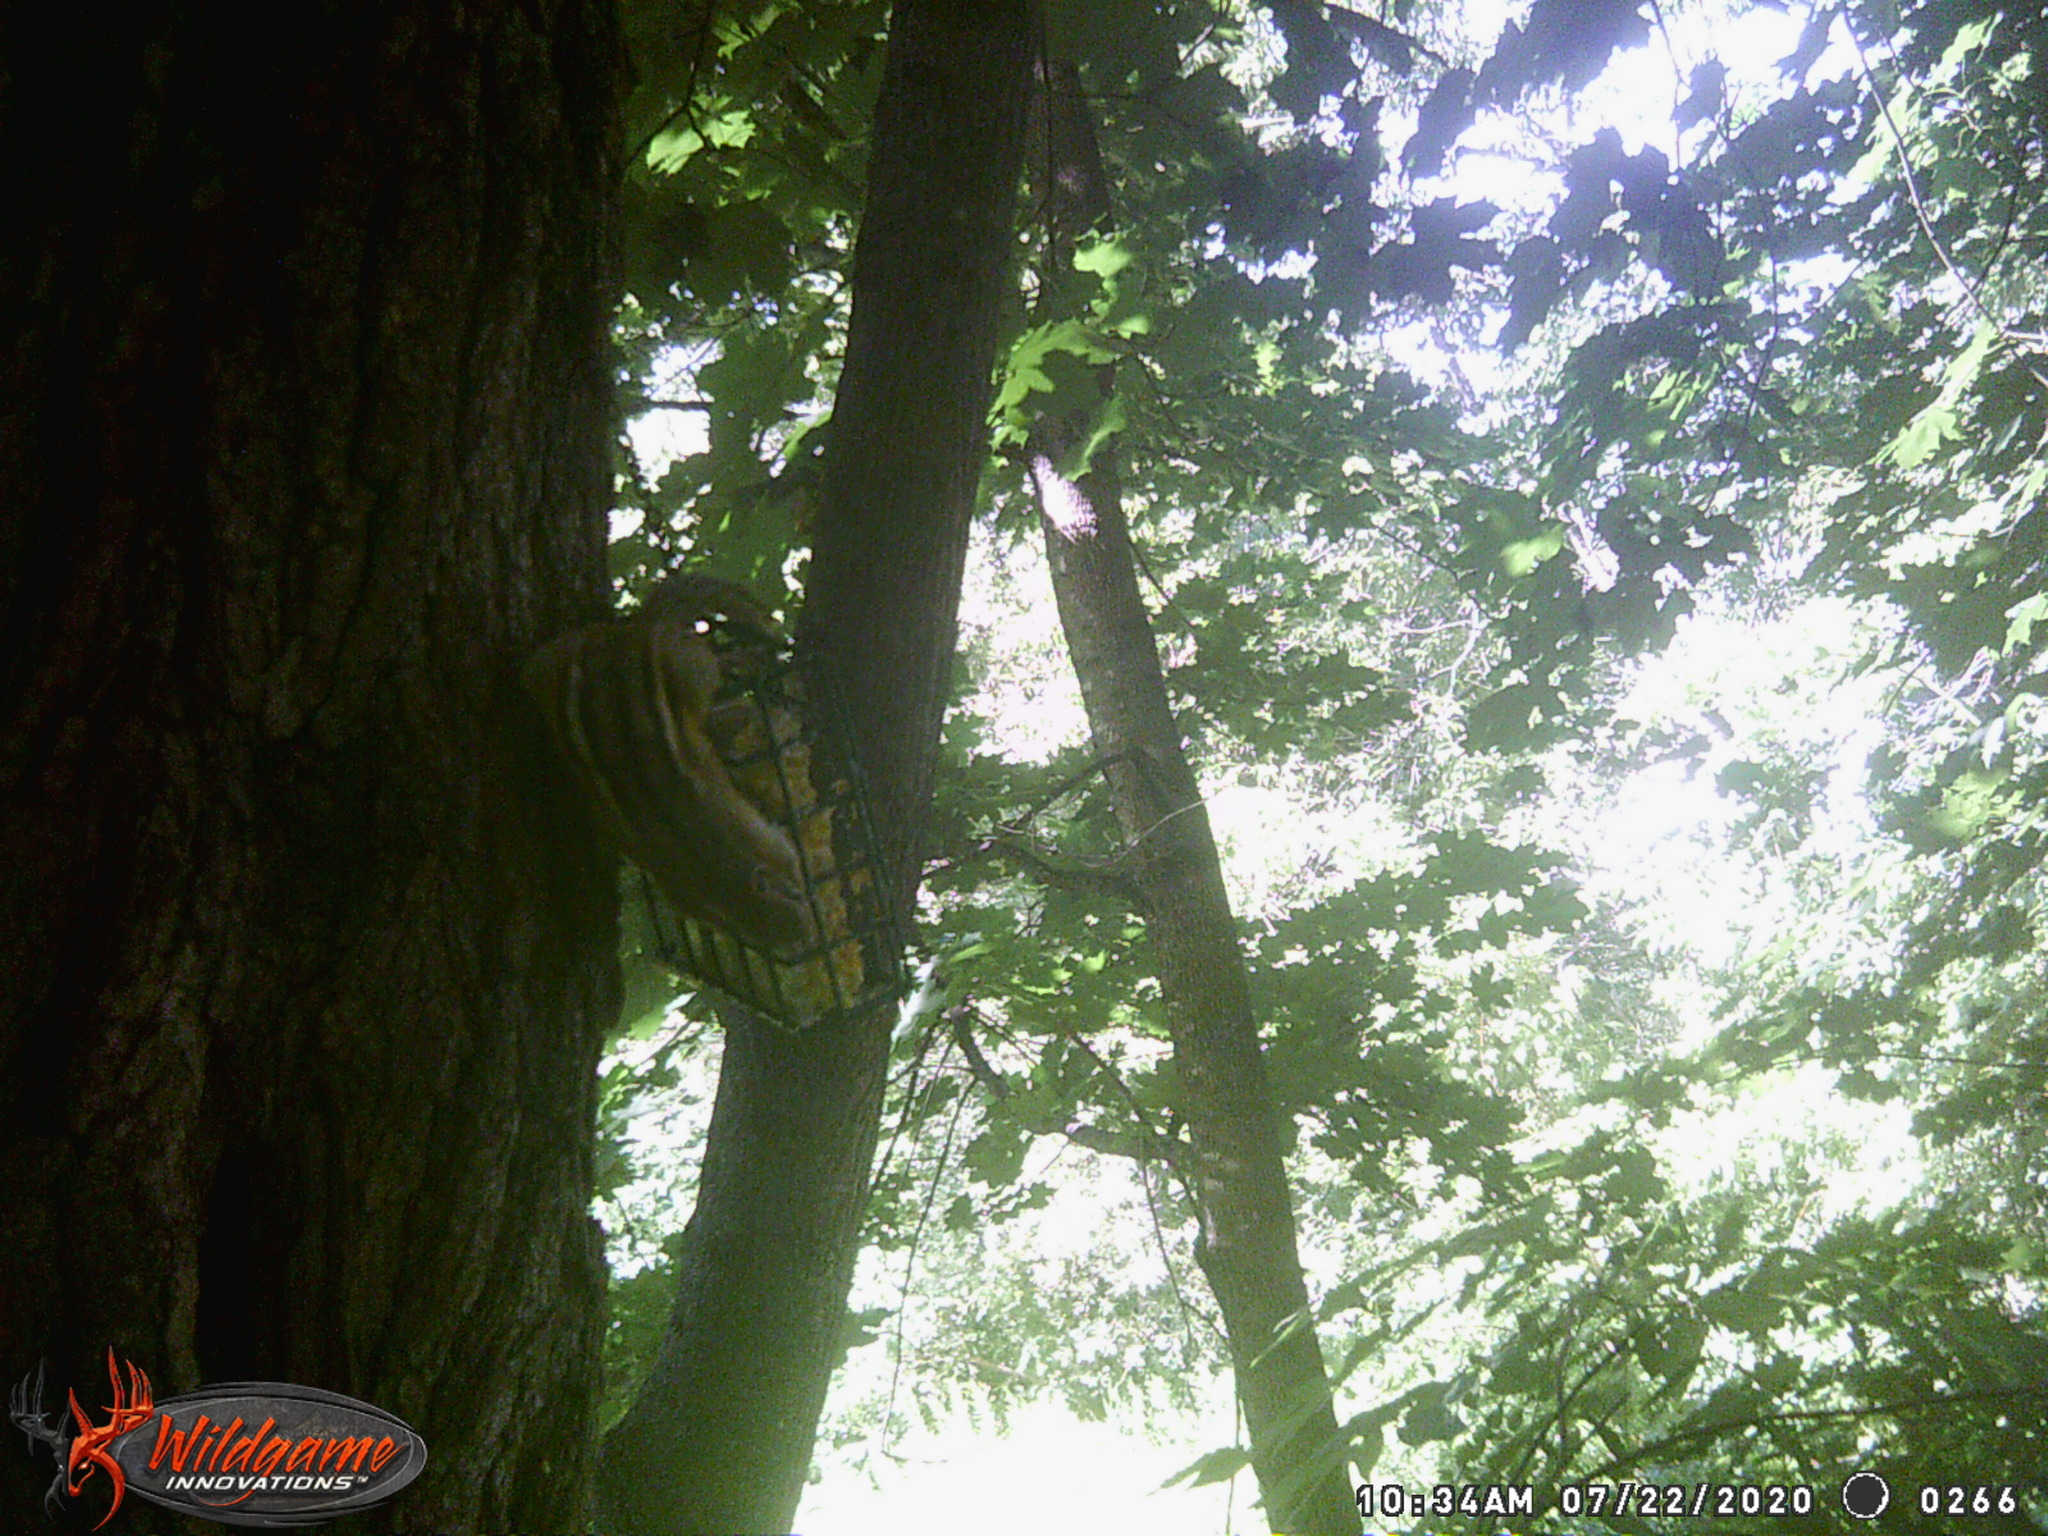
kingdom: Animalia
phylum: Chordata
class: Mammalia
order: Rodentia
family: Sciuridae
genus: Tamias
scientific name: Tamias striatus
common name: Eastern chipmunk
